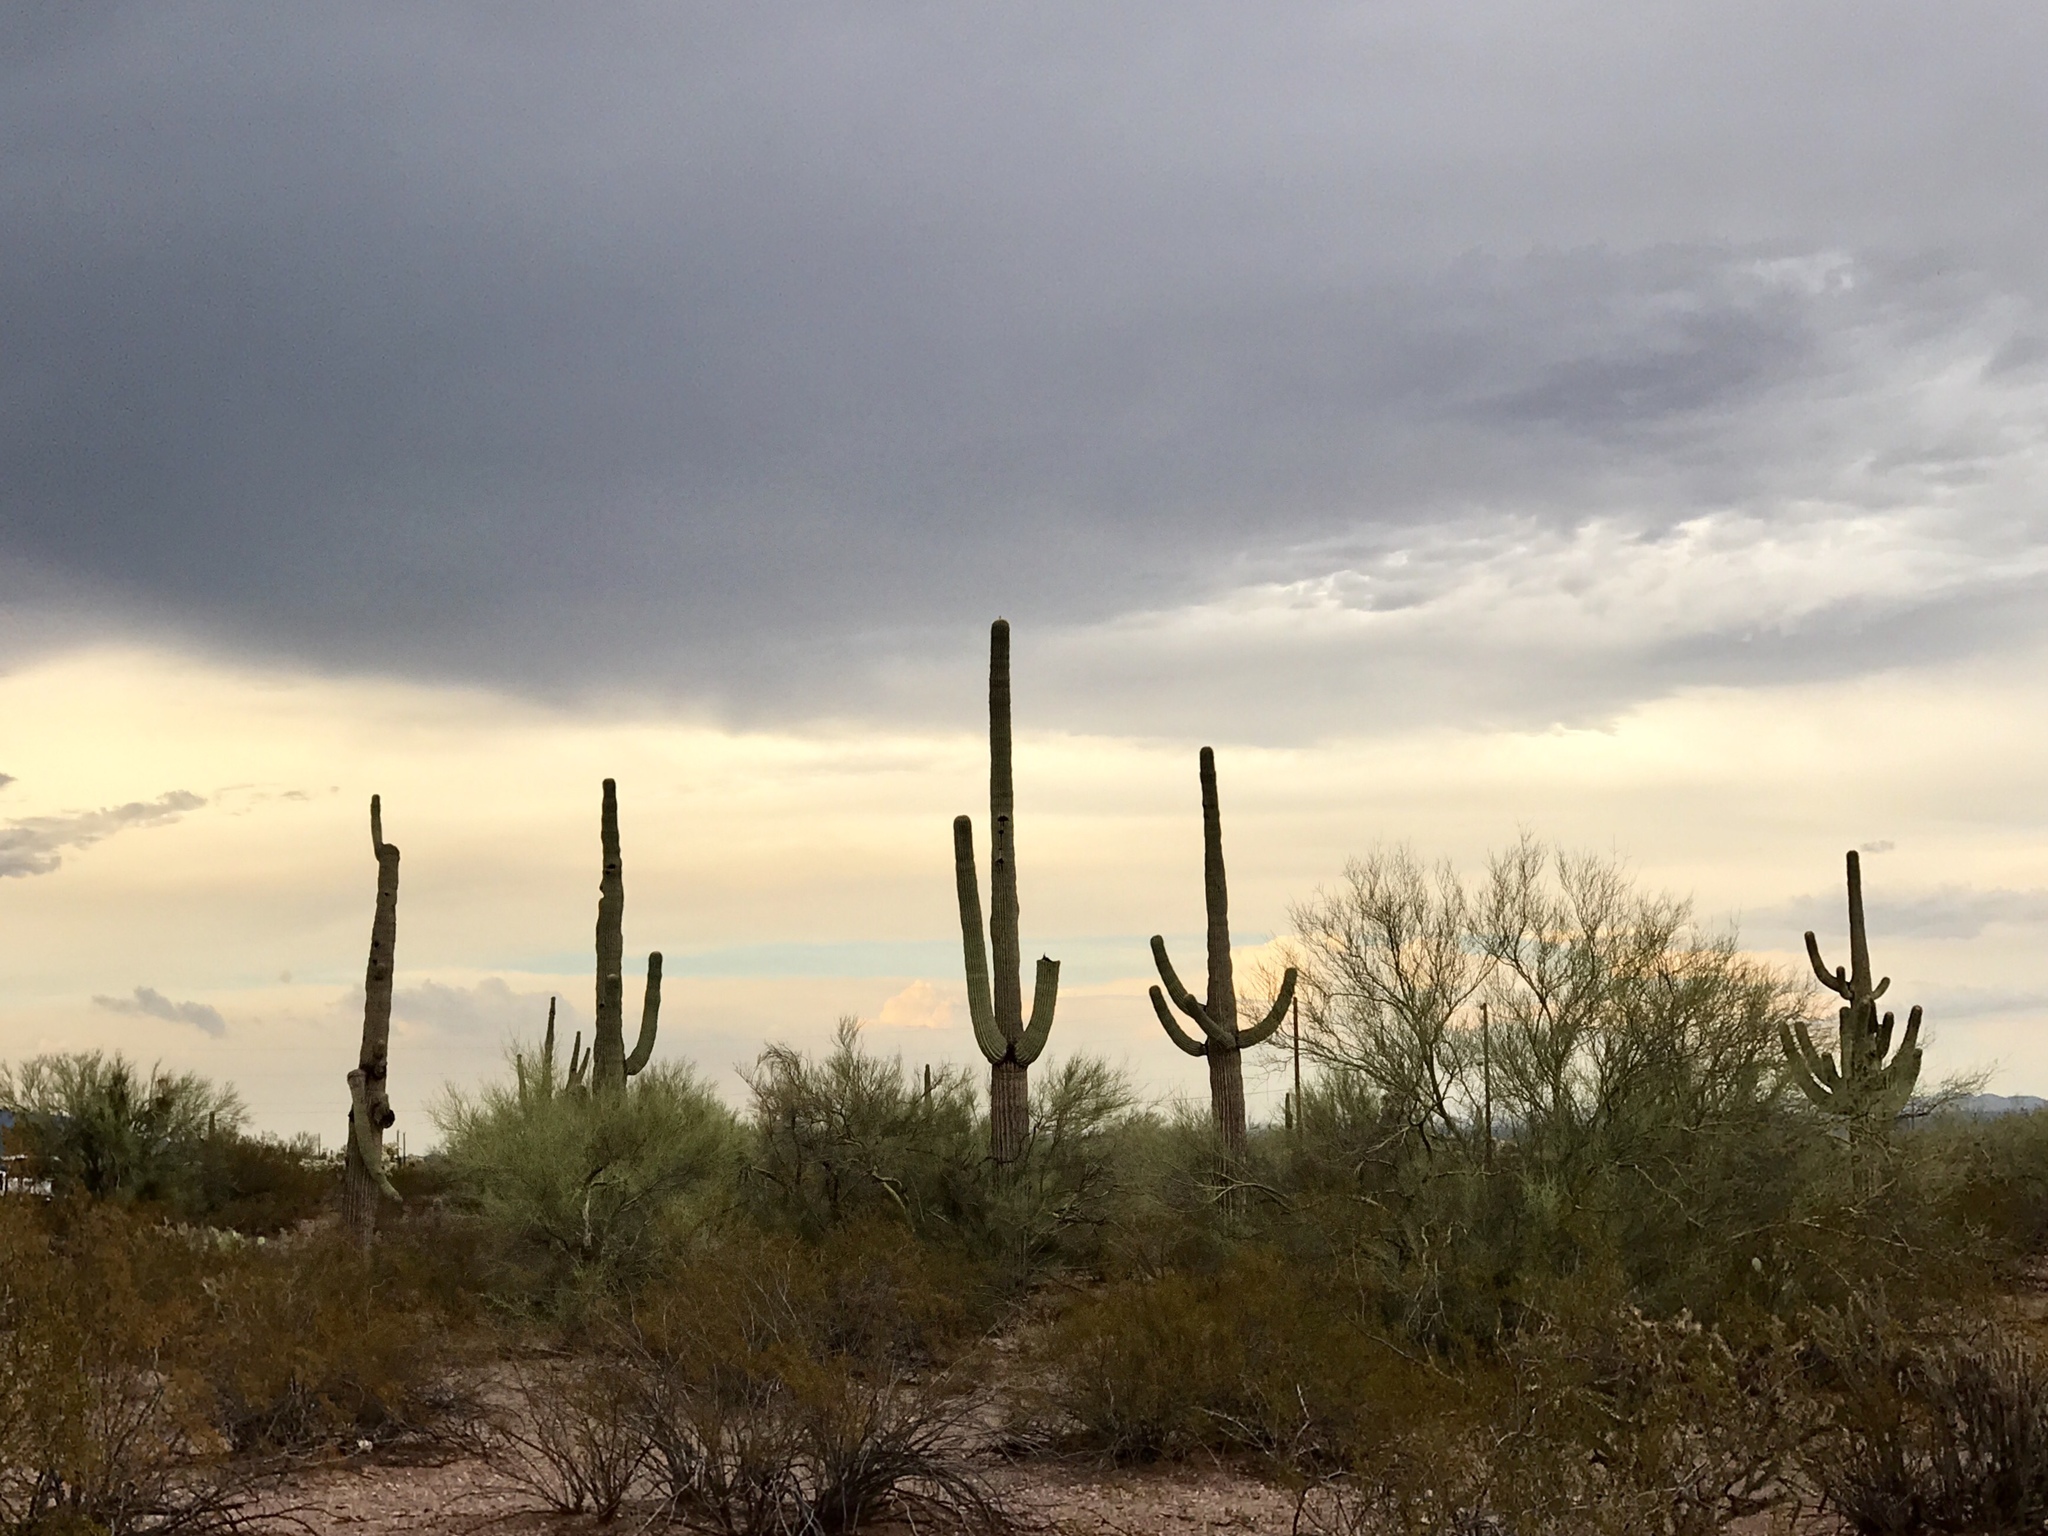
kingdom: Plantae
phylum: Tracheophyta
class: Magnoliopsida
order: Caryophyllales
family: Cactaceae
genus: Carnegiea
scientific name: Carnegiea gigantea
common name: Saguaro
